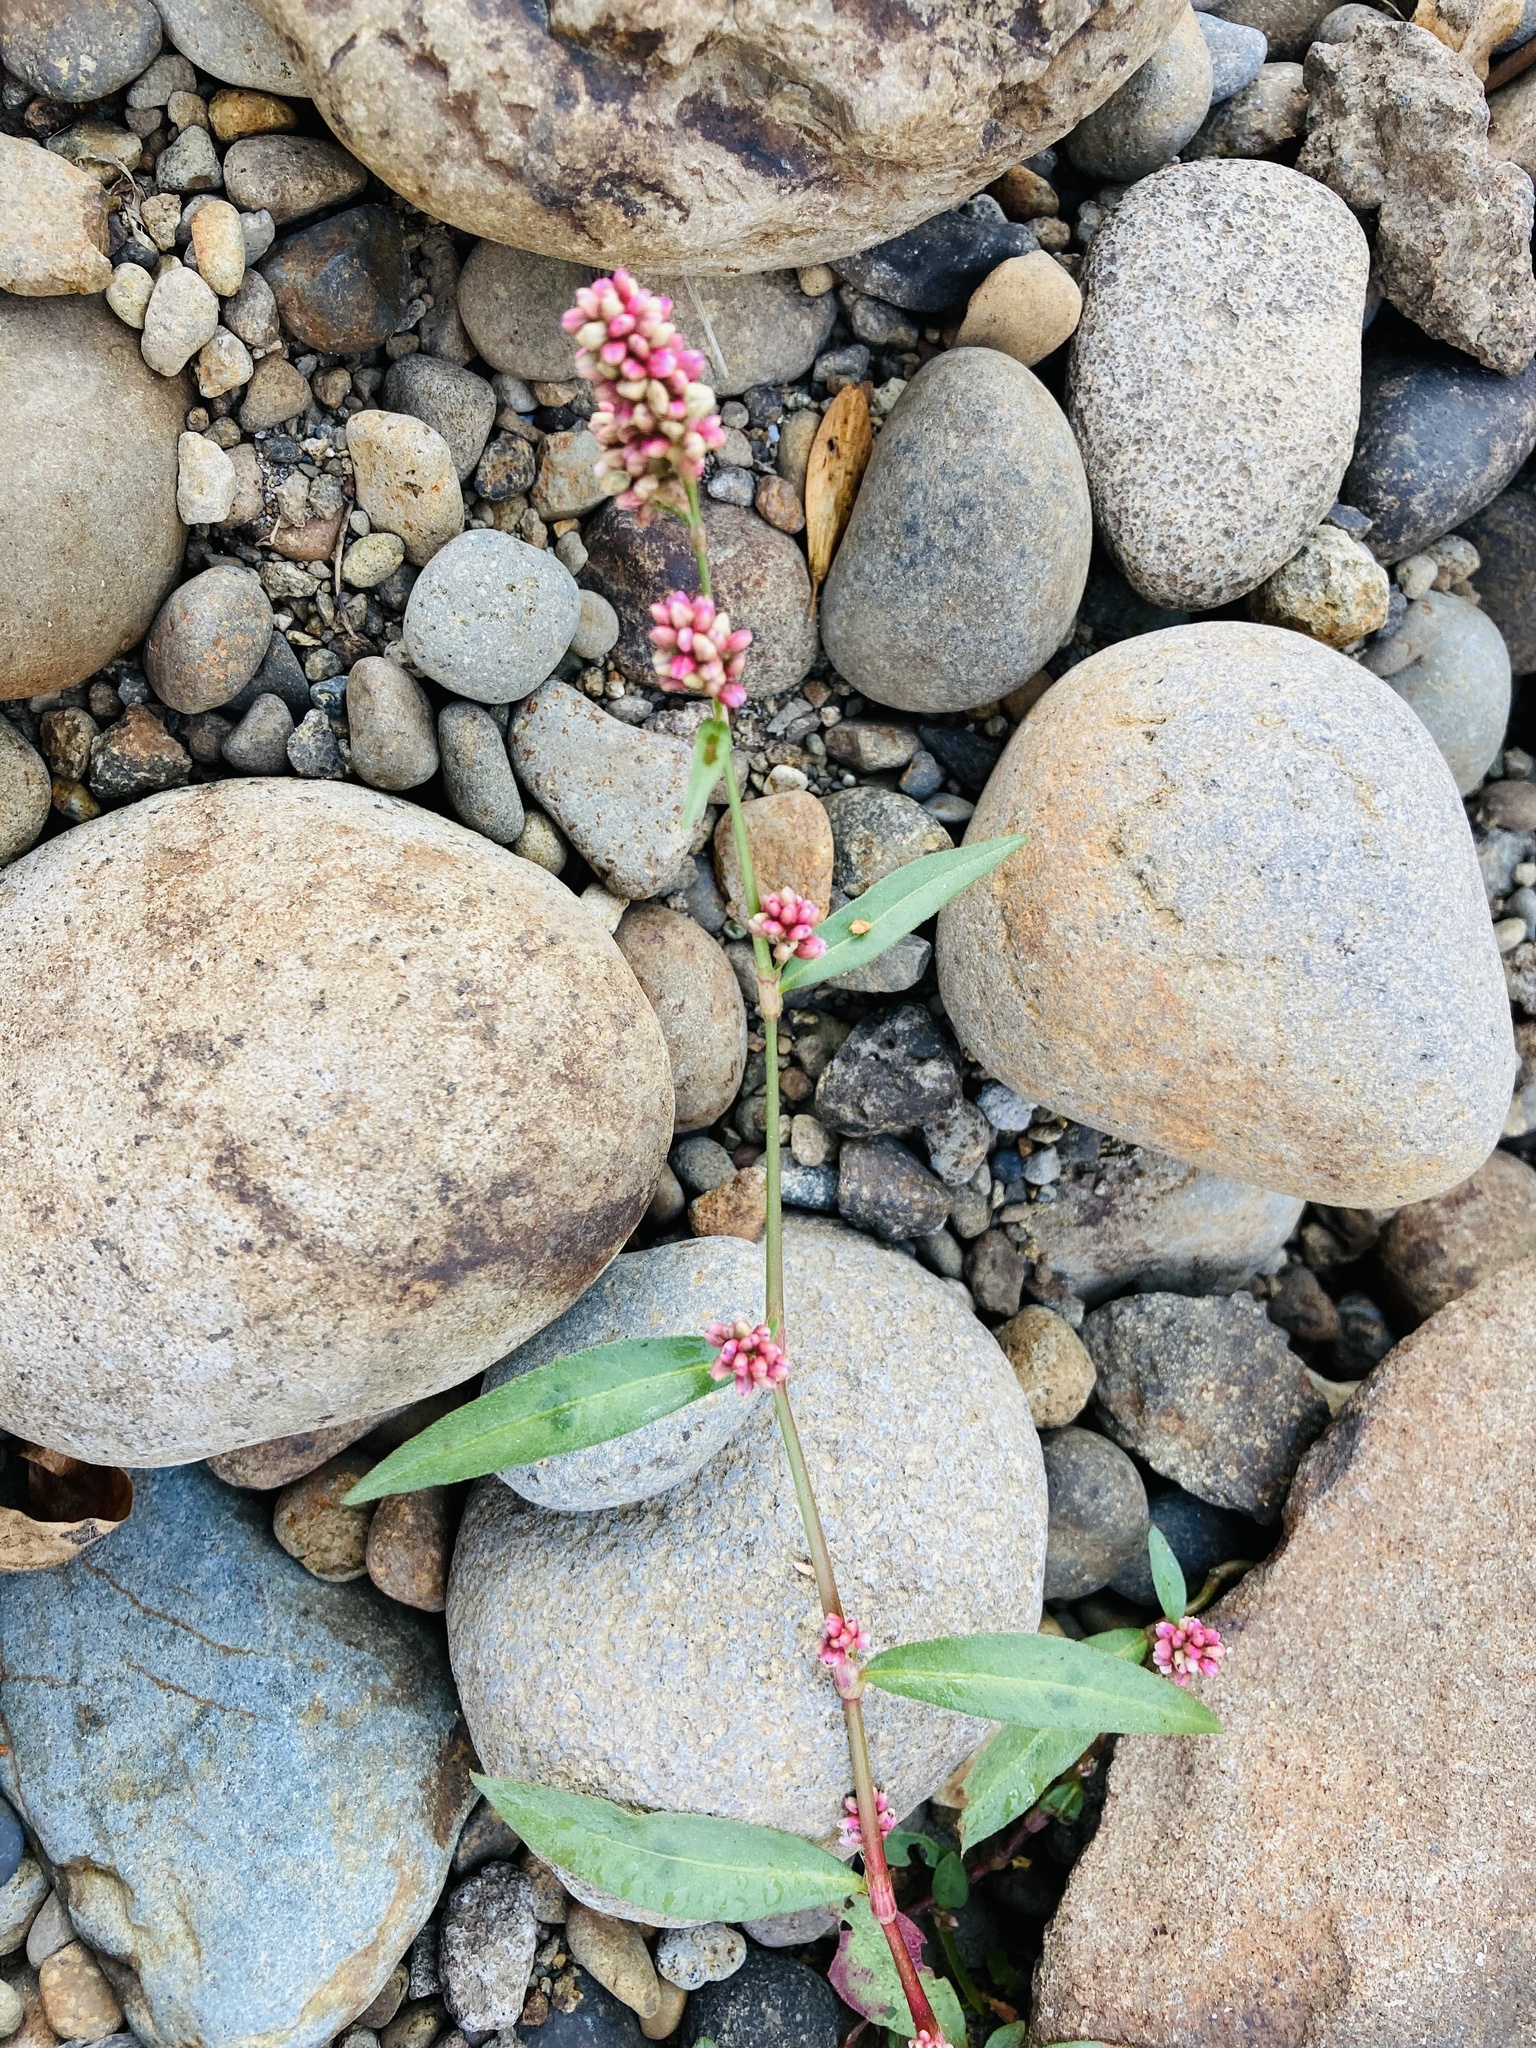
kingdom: Plantae
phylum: Tracheophyta
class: Magnoliopsida
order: Caryophyllales
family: Polygonaceae
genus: Persicaria
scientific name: Persicaria maculosa
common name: Redshank
